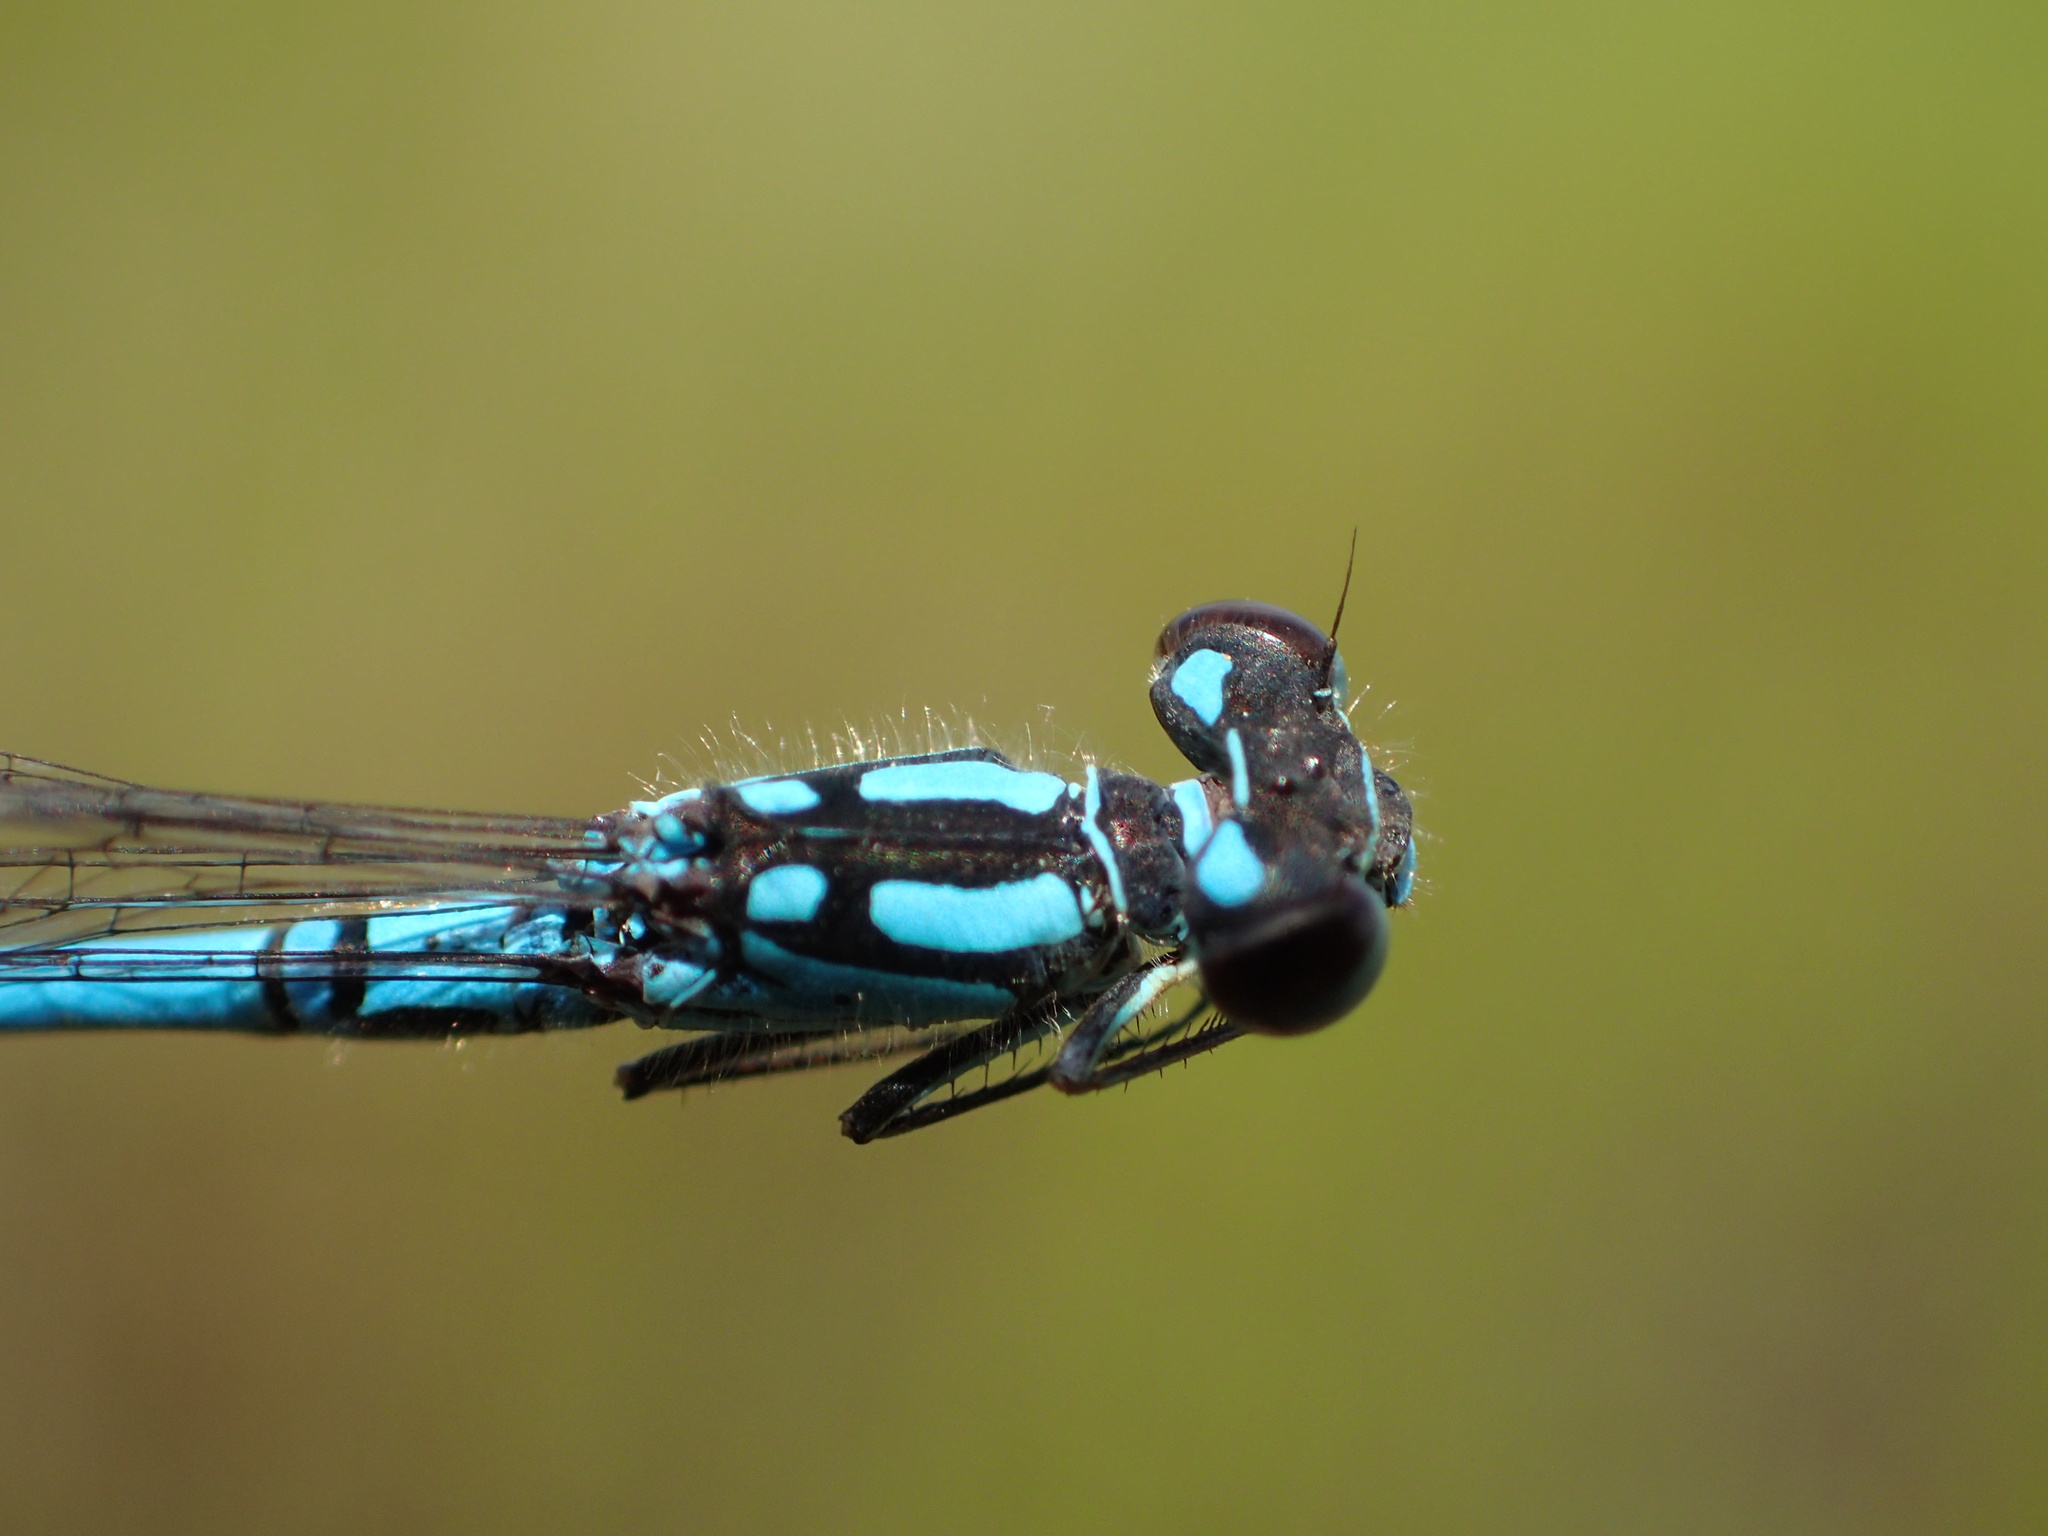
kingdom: Animalia
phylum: Arthropoda
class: Insecta
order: Odonata
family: Coenagrionidae
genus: Coenagrion
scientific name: Coenagrion interrogatum
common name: Subarctic bluet
